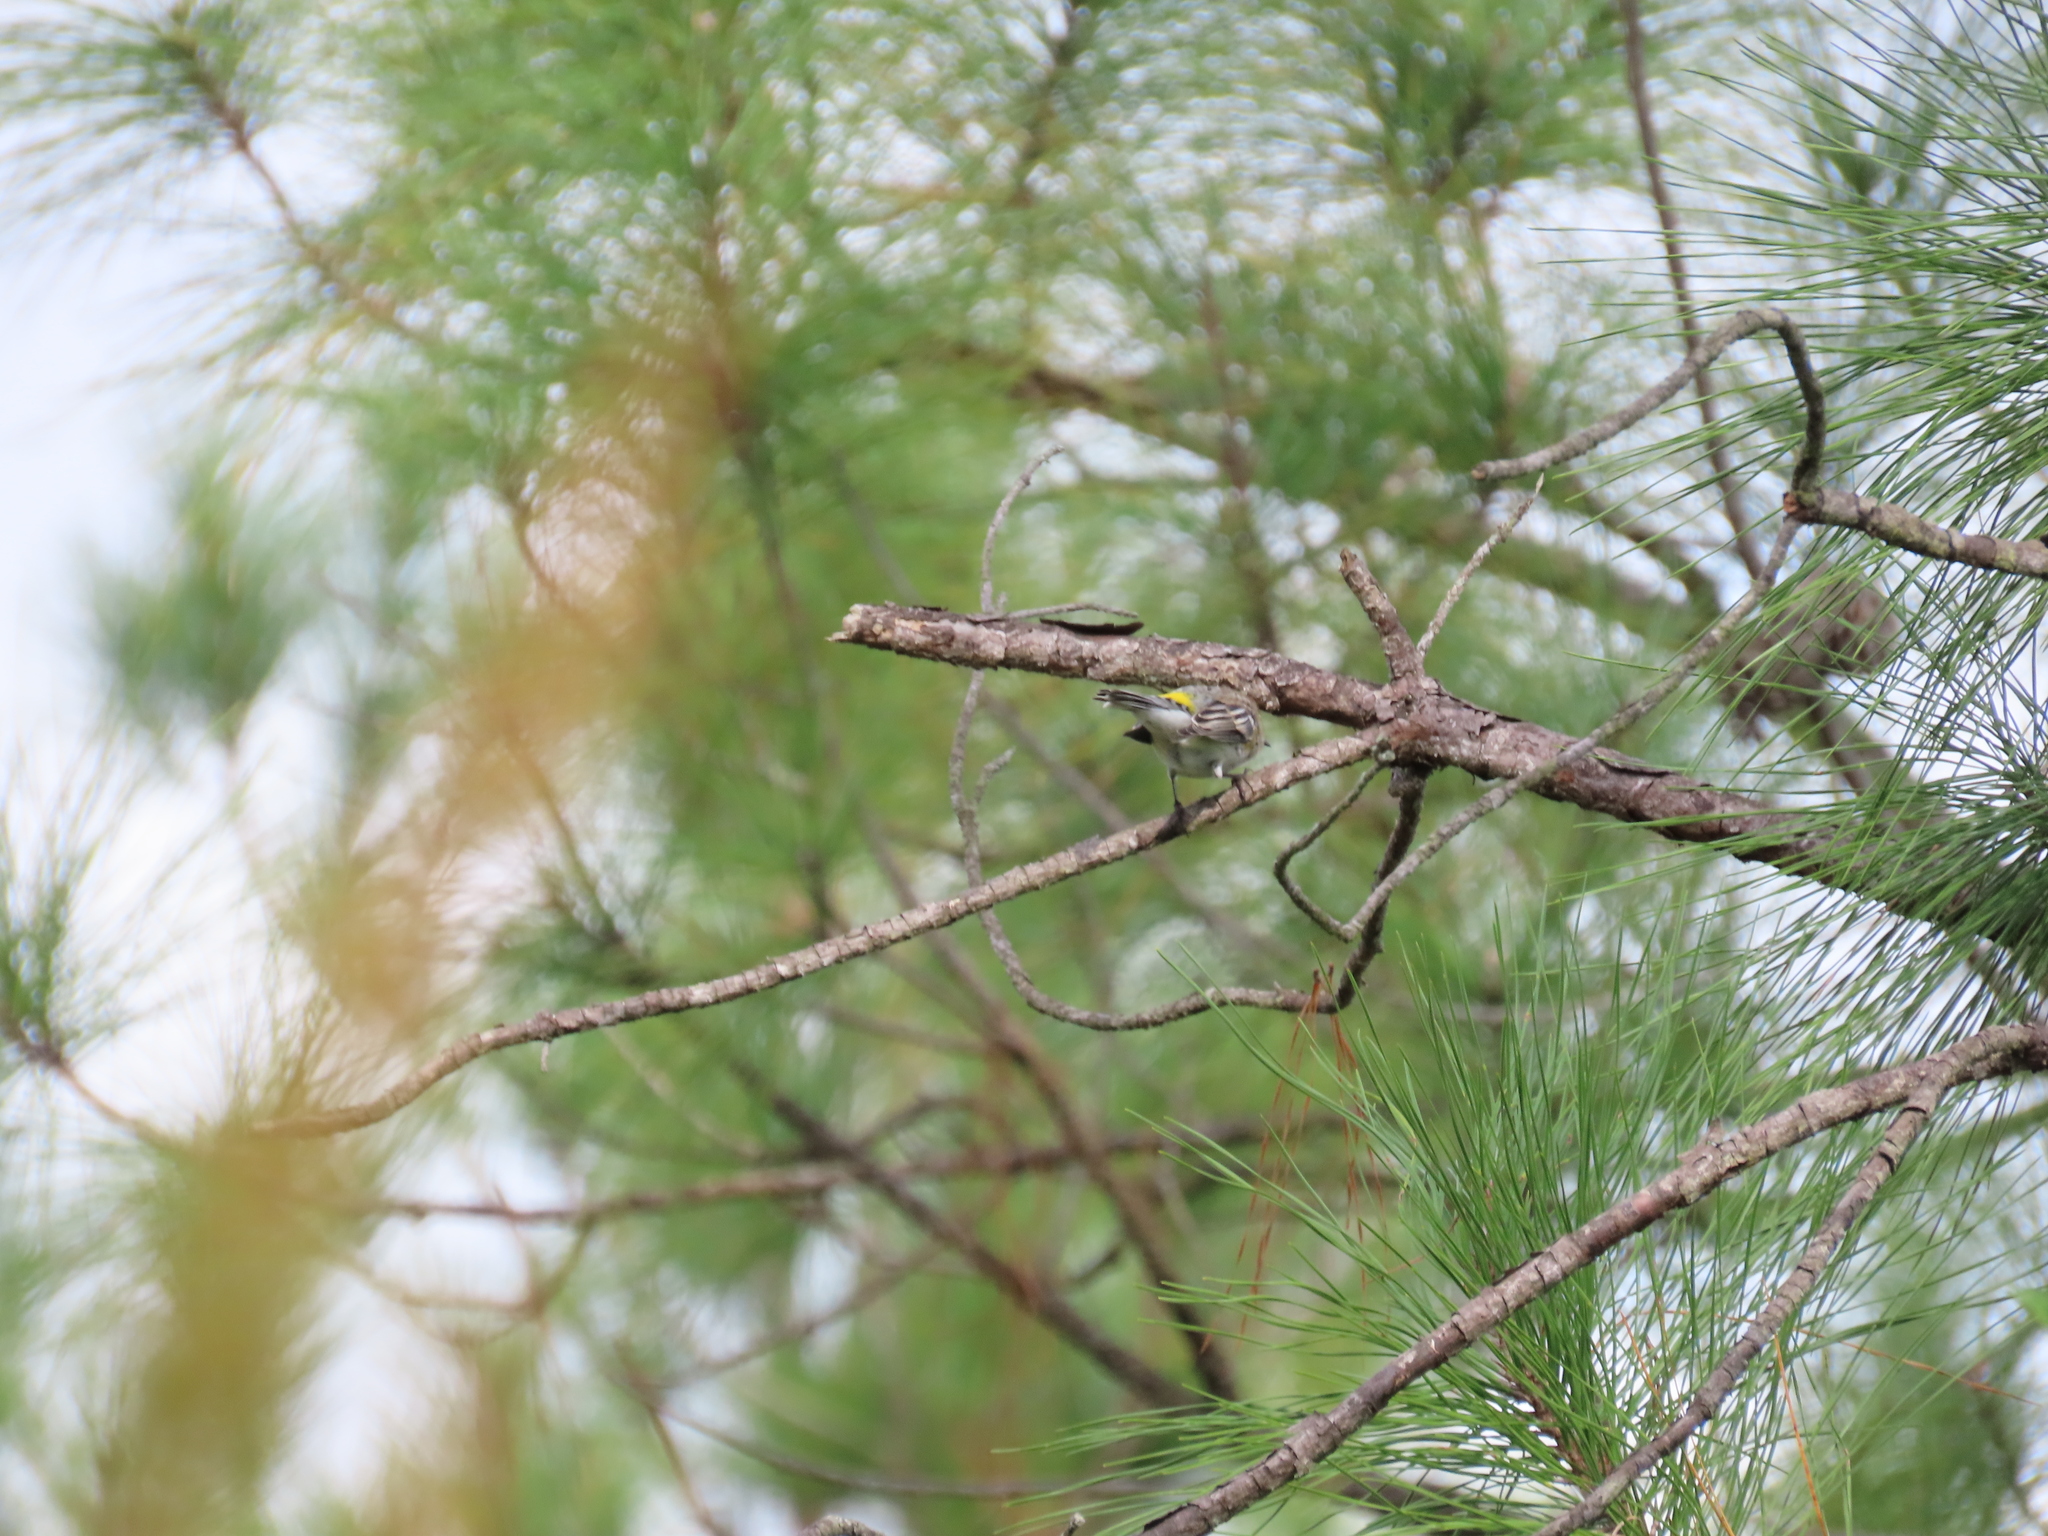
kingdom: Animalia
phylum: Chordata
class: Aves
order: Passeriformes
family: Parulidae
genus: Setophaga
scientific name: Setophaga coronata
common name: Myrtle warbler
